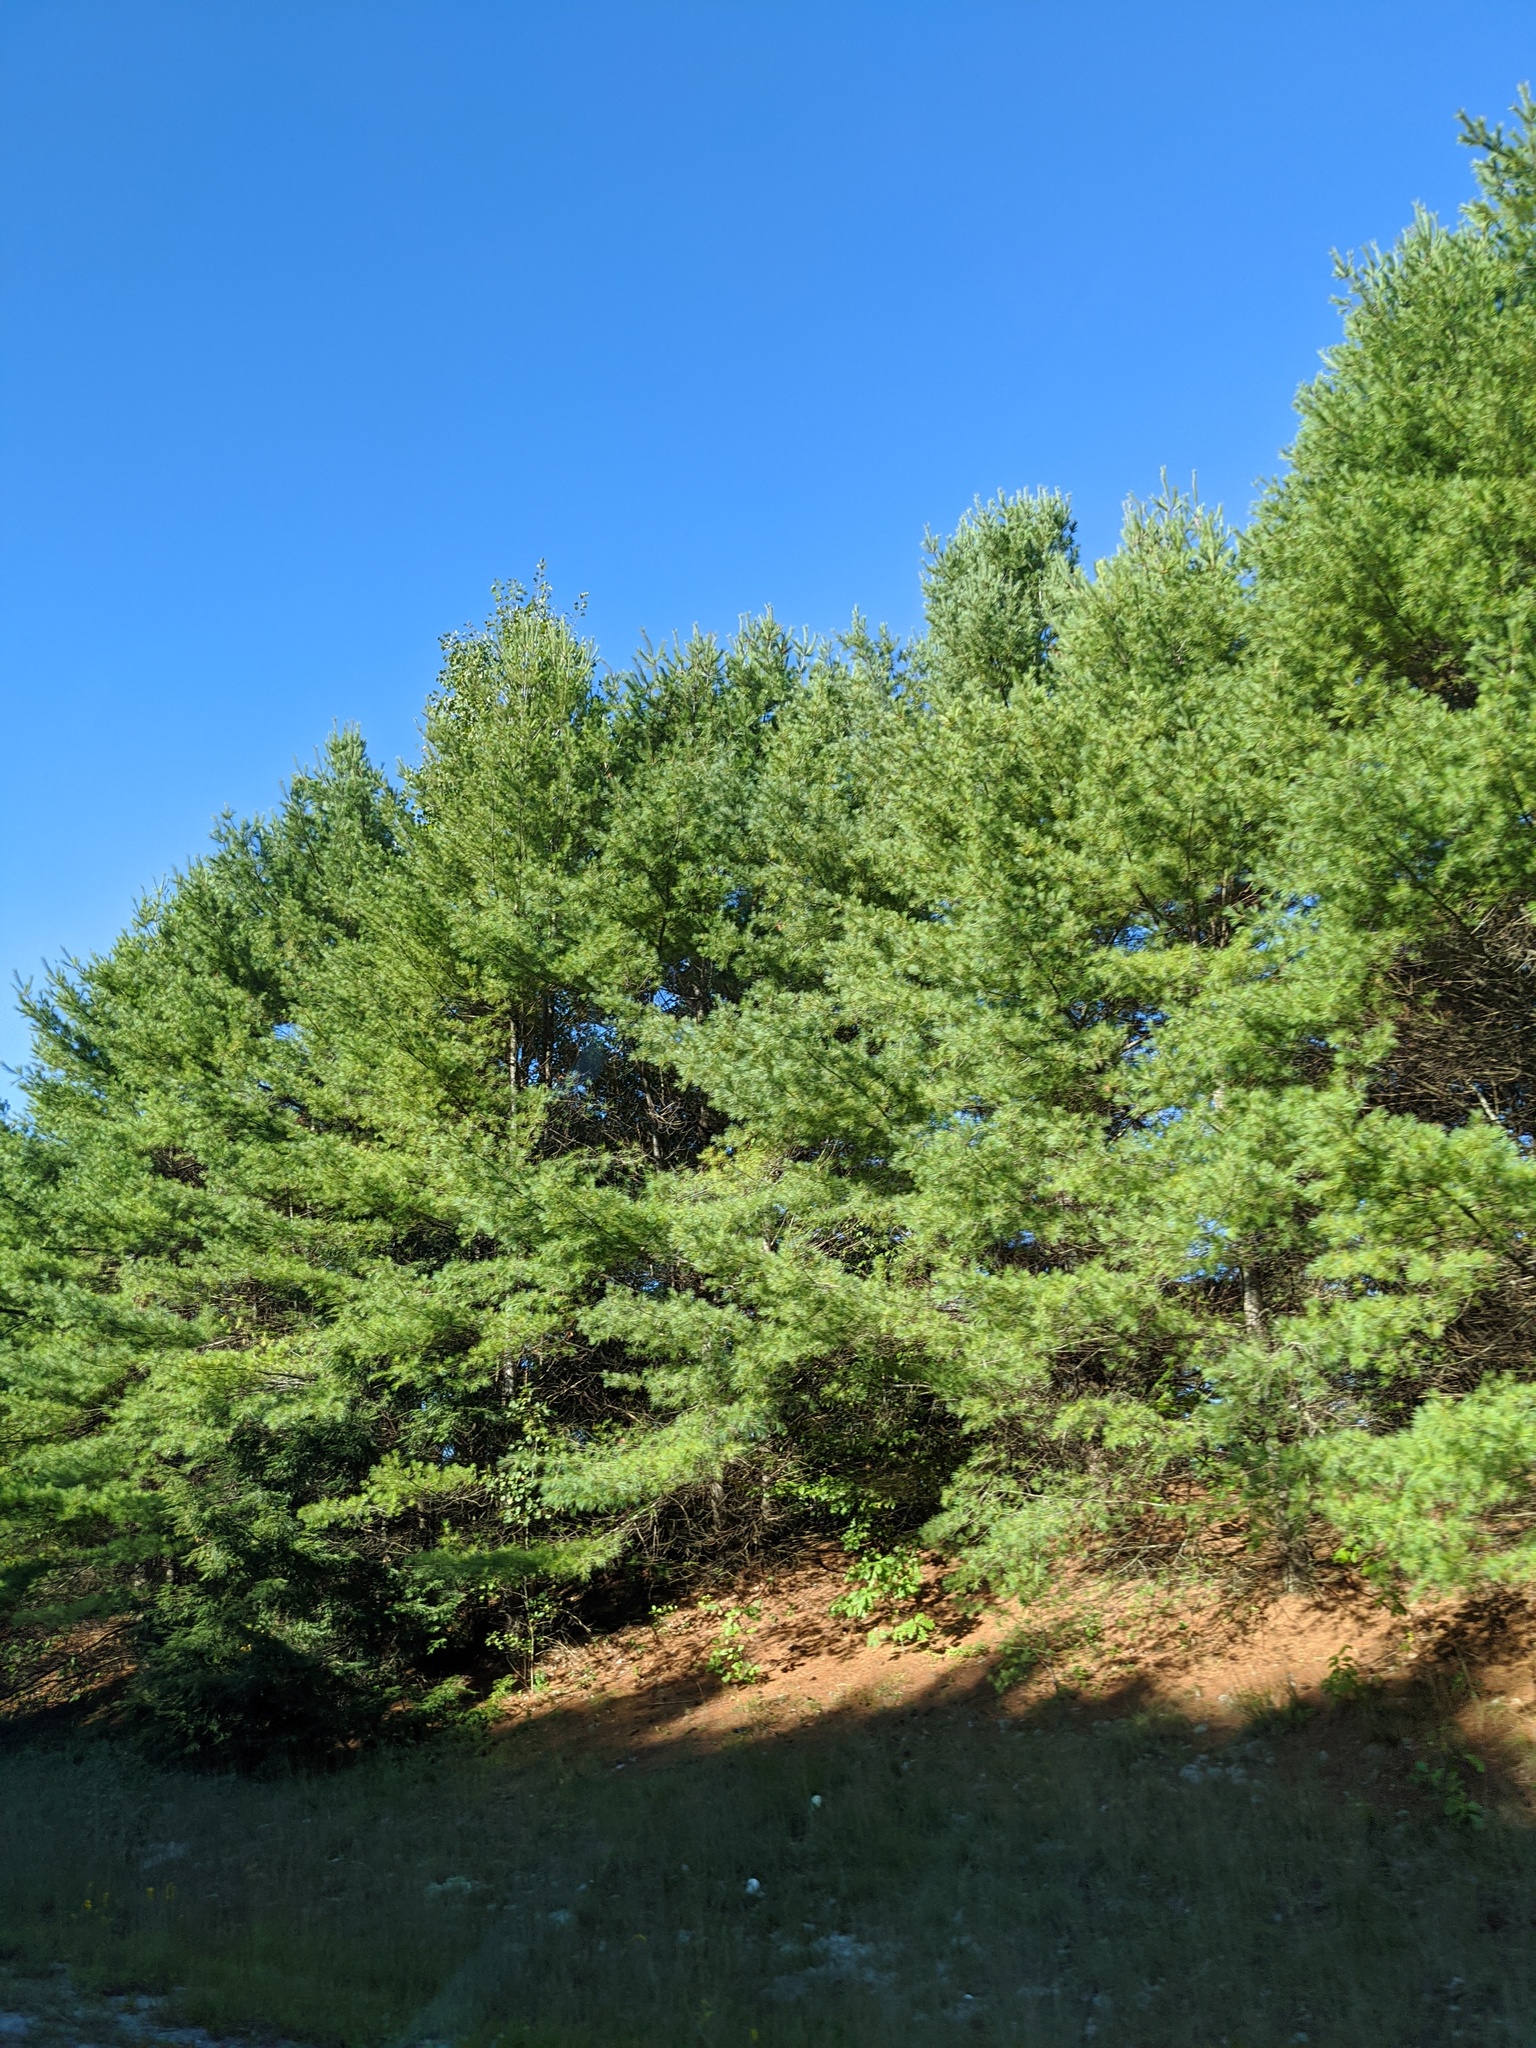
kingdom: Plantae
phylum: Tracheophyta
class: Pinopsida
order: Pinales
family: Pinaceae
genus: Pinus
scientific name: Pinus strobus
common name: Weymouth pine
